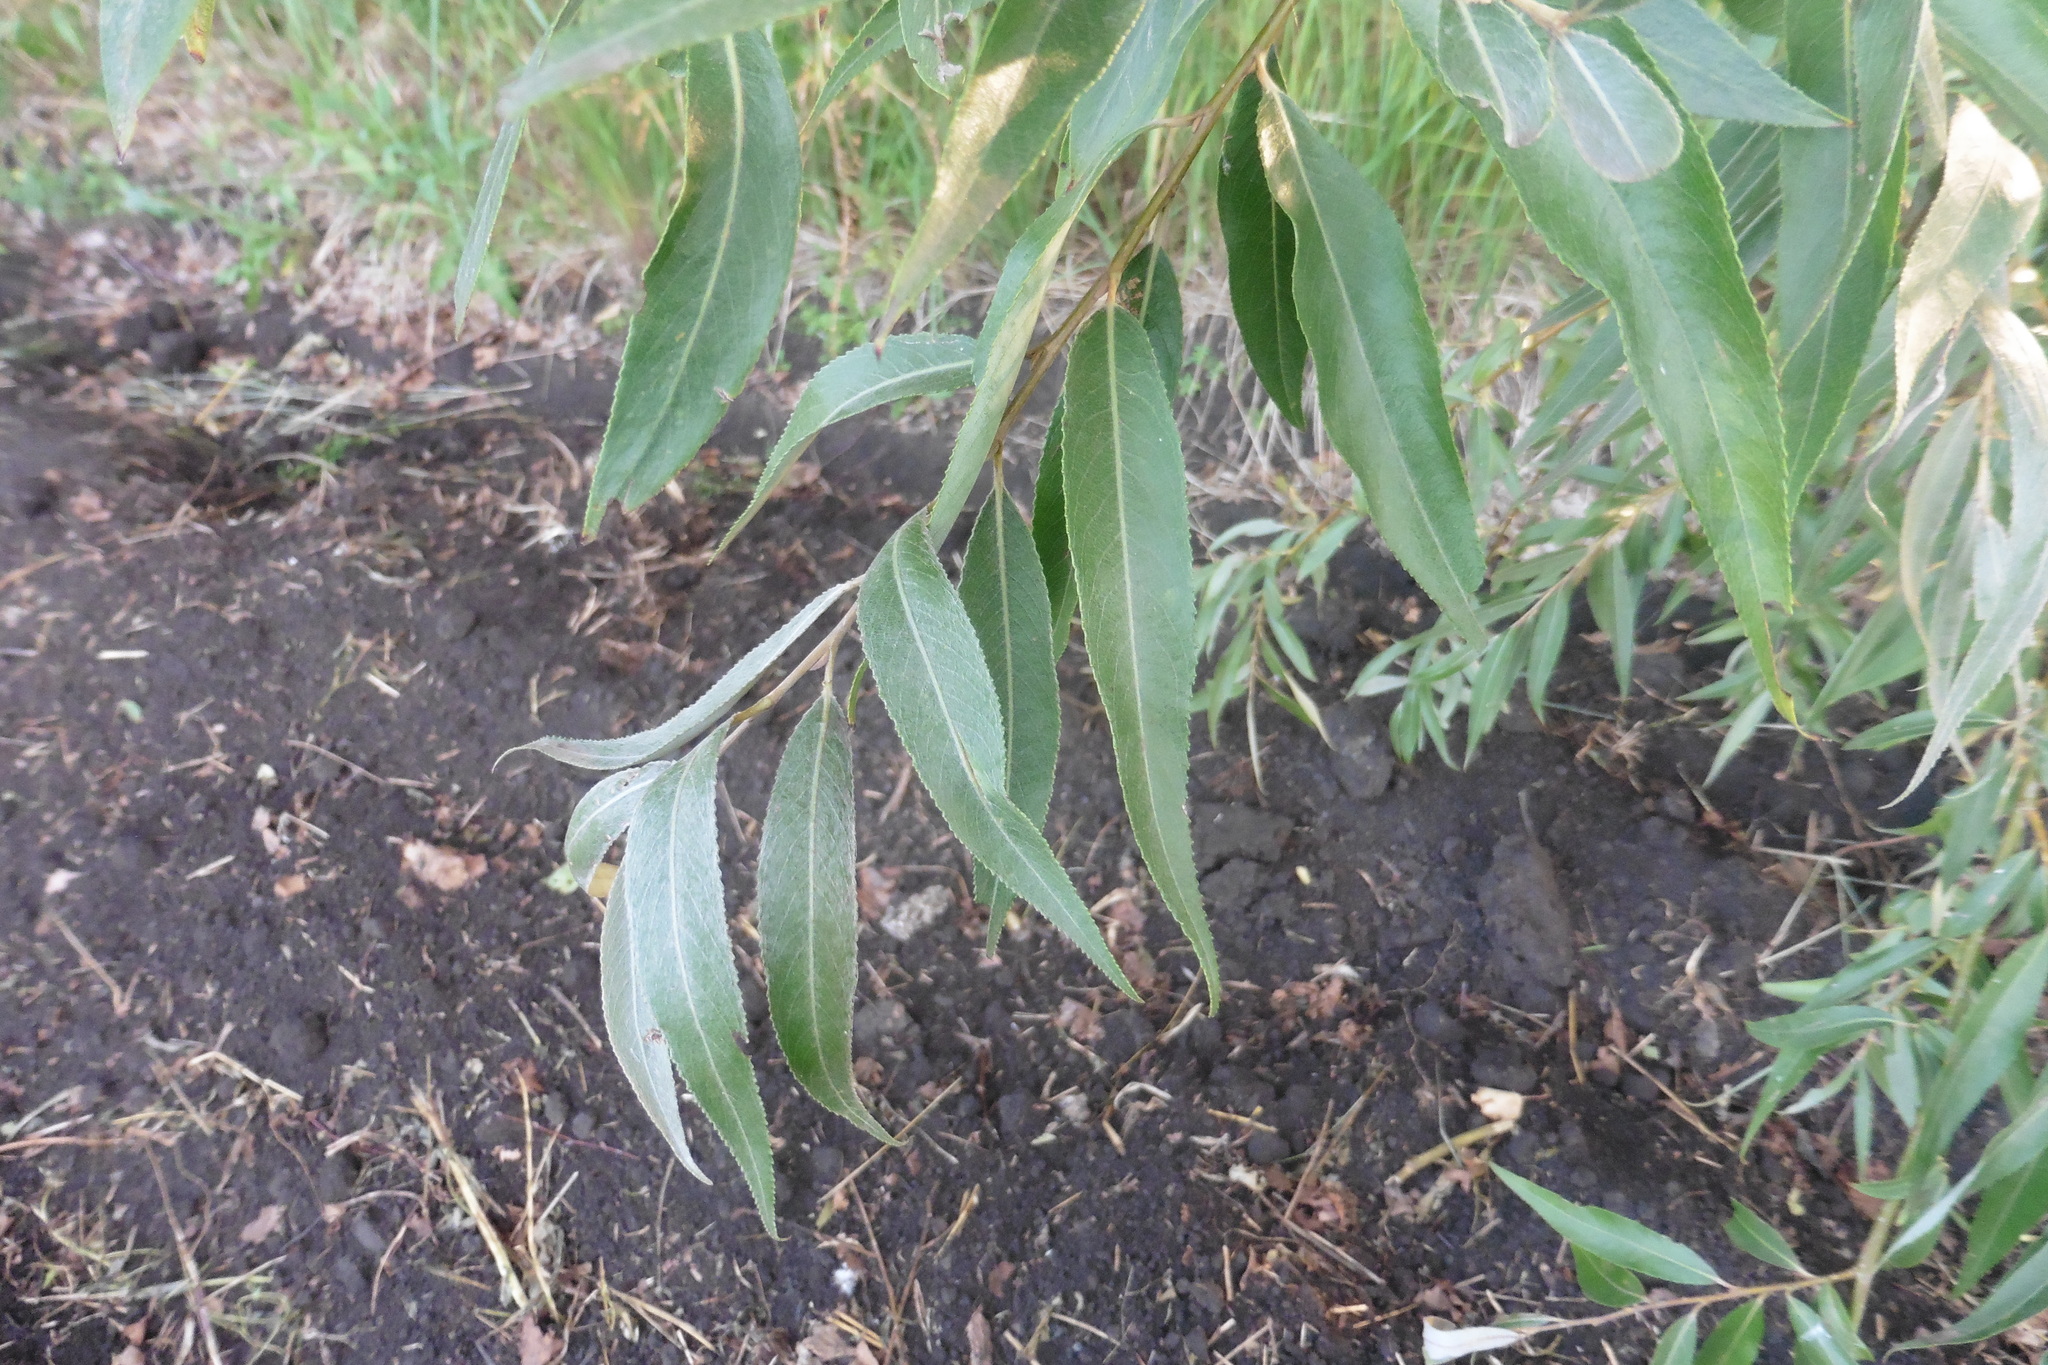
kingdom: Plantae
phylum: Tracheophyta
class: Magnoliopsida
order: Malpighiales
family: Salicaceae
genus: Salix
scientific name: Salix fragilis
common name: Crack willow
